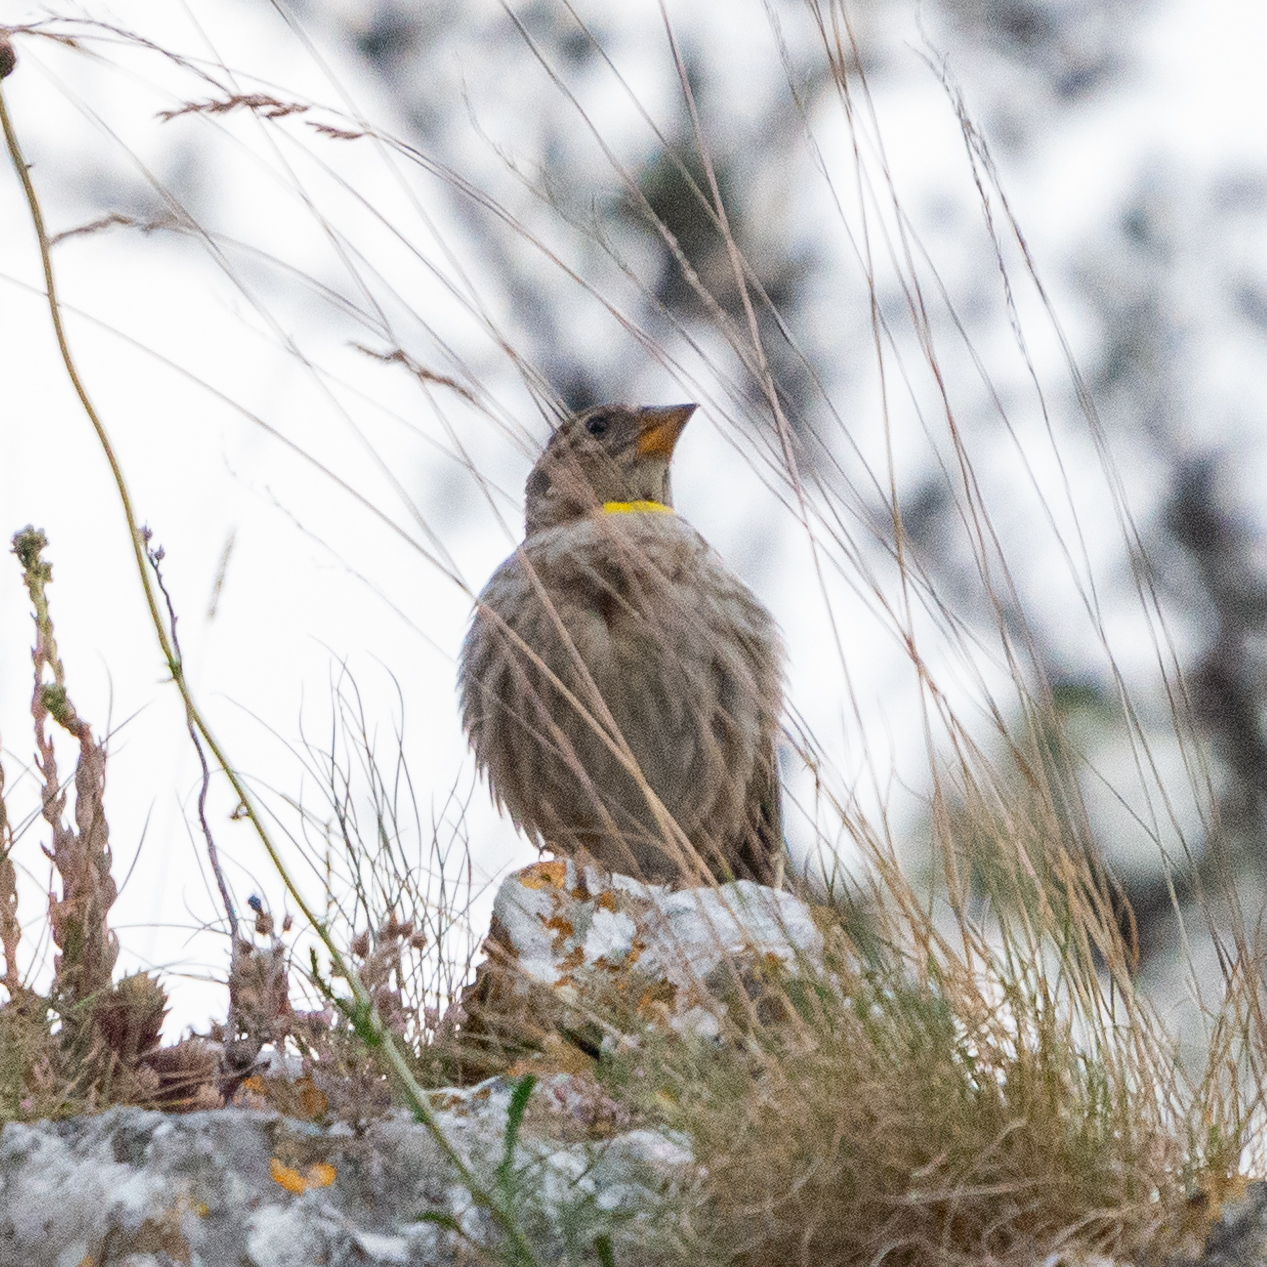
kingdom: Animalia
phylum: Chordata
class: Aves
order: Passeriformes
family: Passeridae
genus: Petronia
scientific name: Petronia petronia
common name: Rock sparrow
